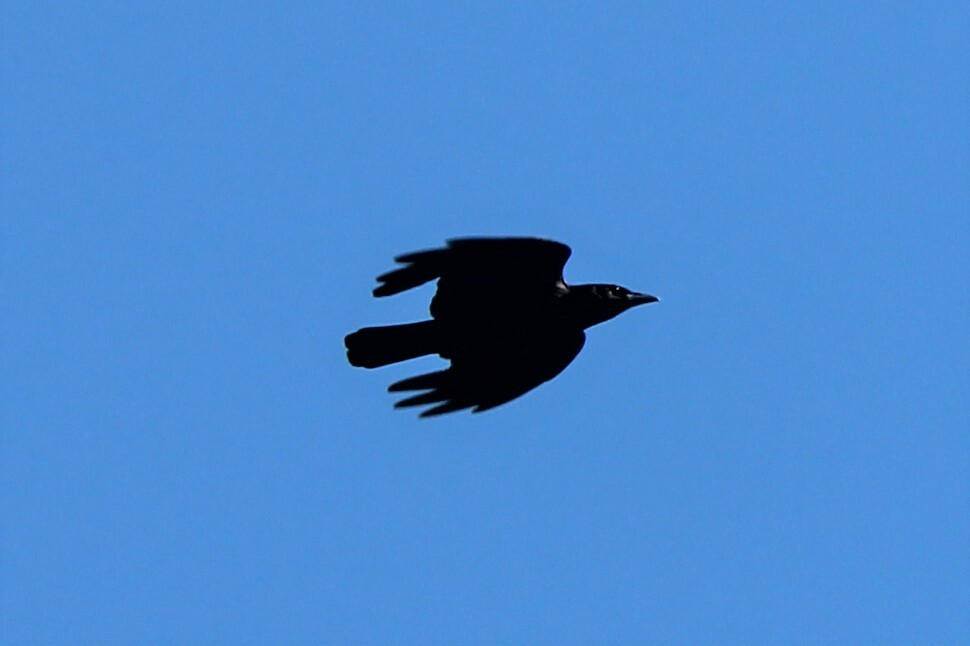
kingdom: Animalia
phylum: Chordata
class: Aves
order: Passeriformes
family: Corvidae
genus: Corvus
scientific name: Corvus brachyrhynchos
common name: American crow
